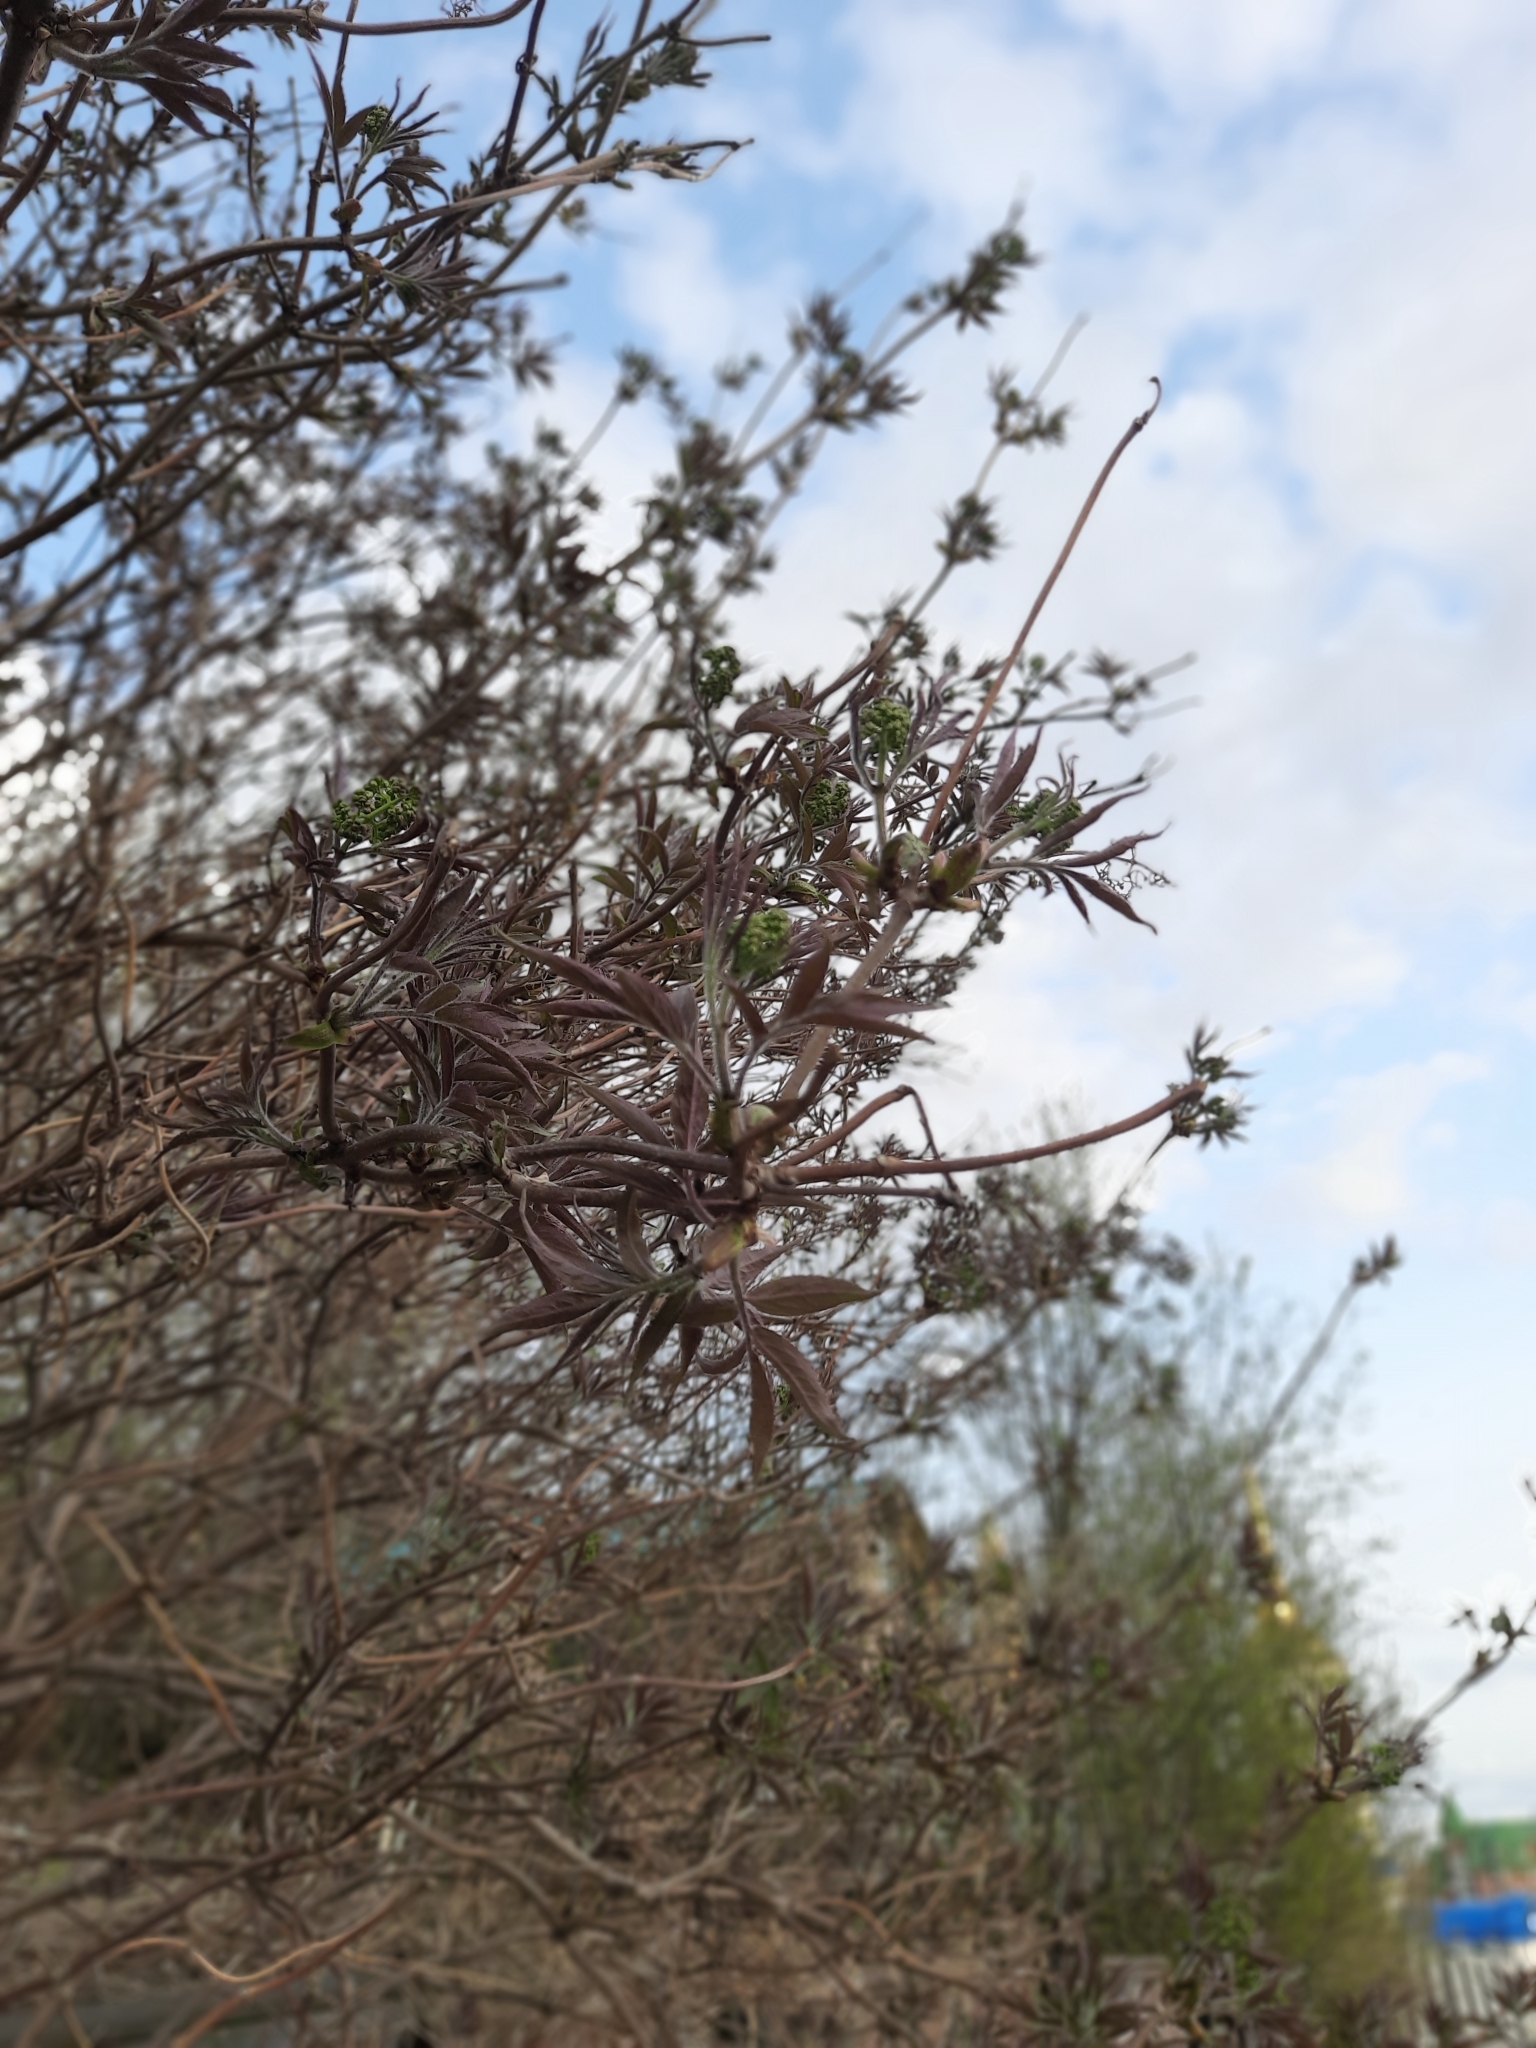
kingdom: Plantae
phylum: Tracheophyta
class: Magnoliopsida
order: Dipsacales
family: Viburnaceae
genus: Sambucus
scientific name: Sambucus sibirica
